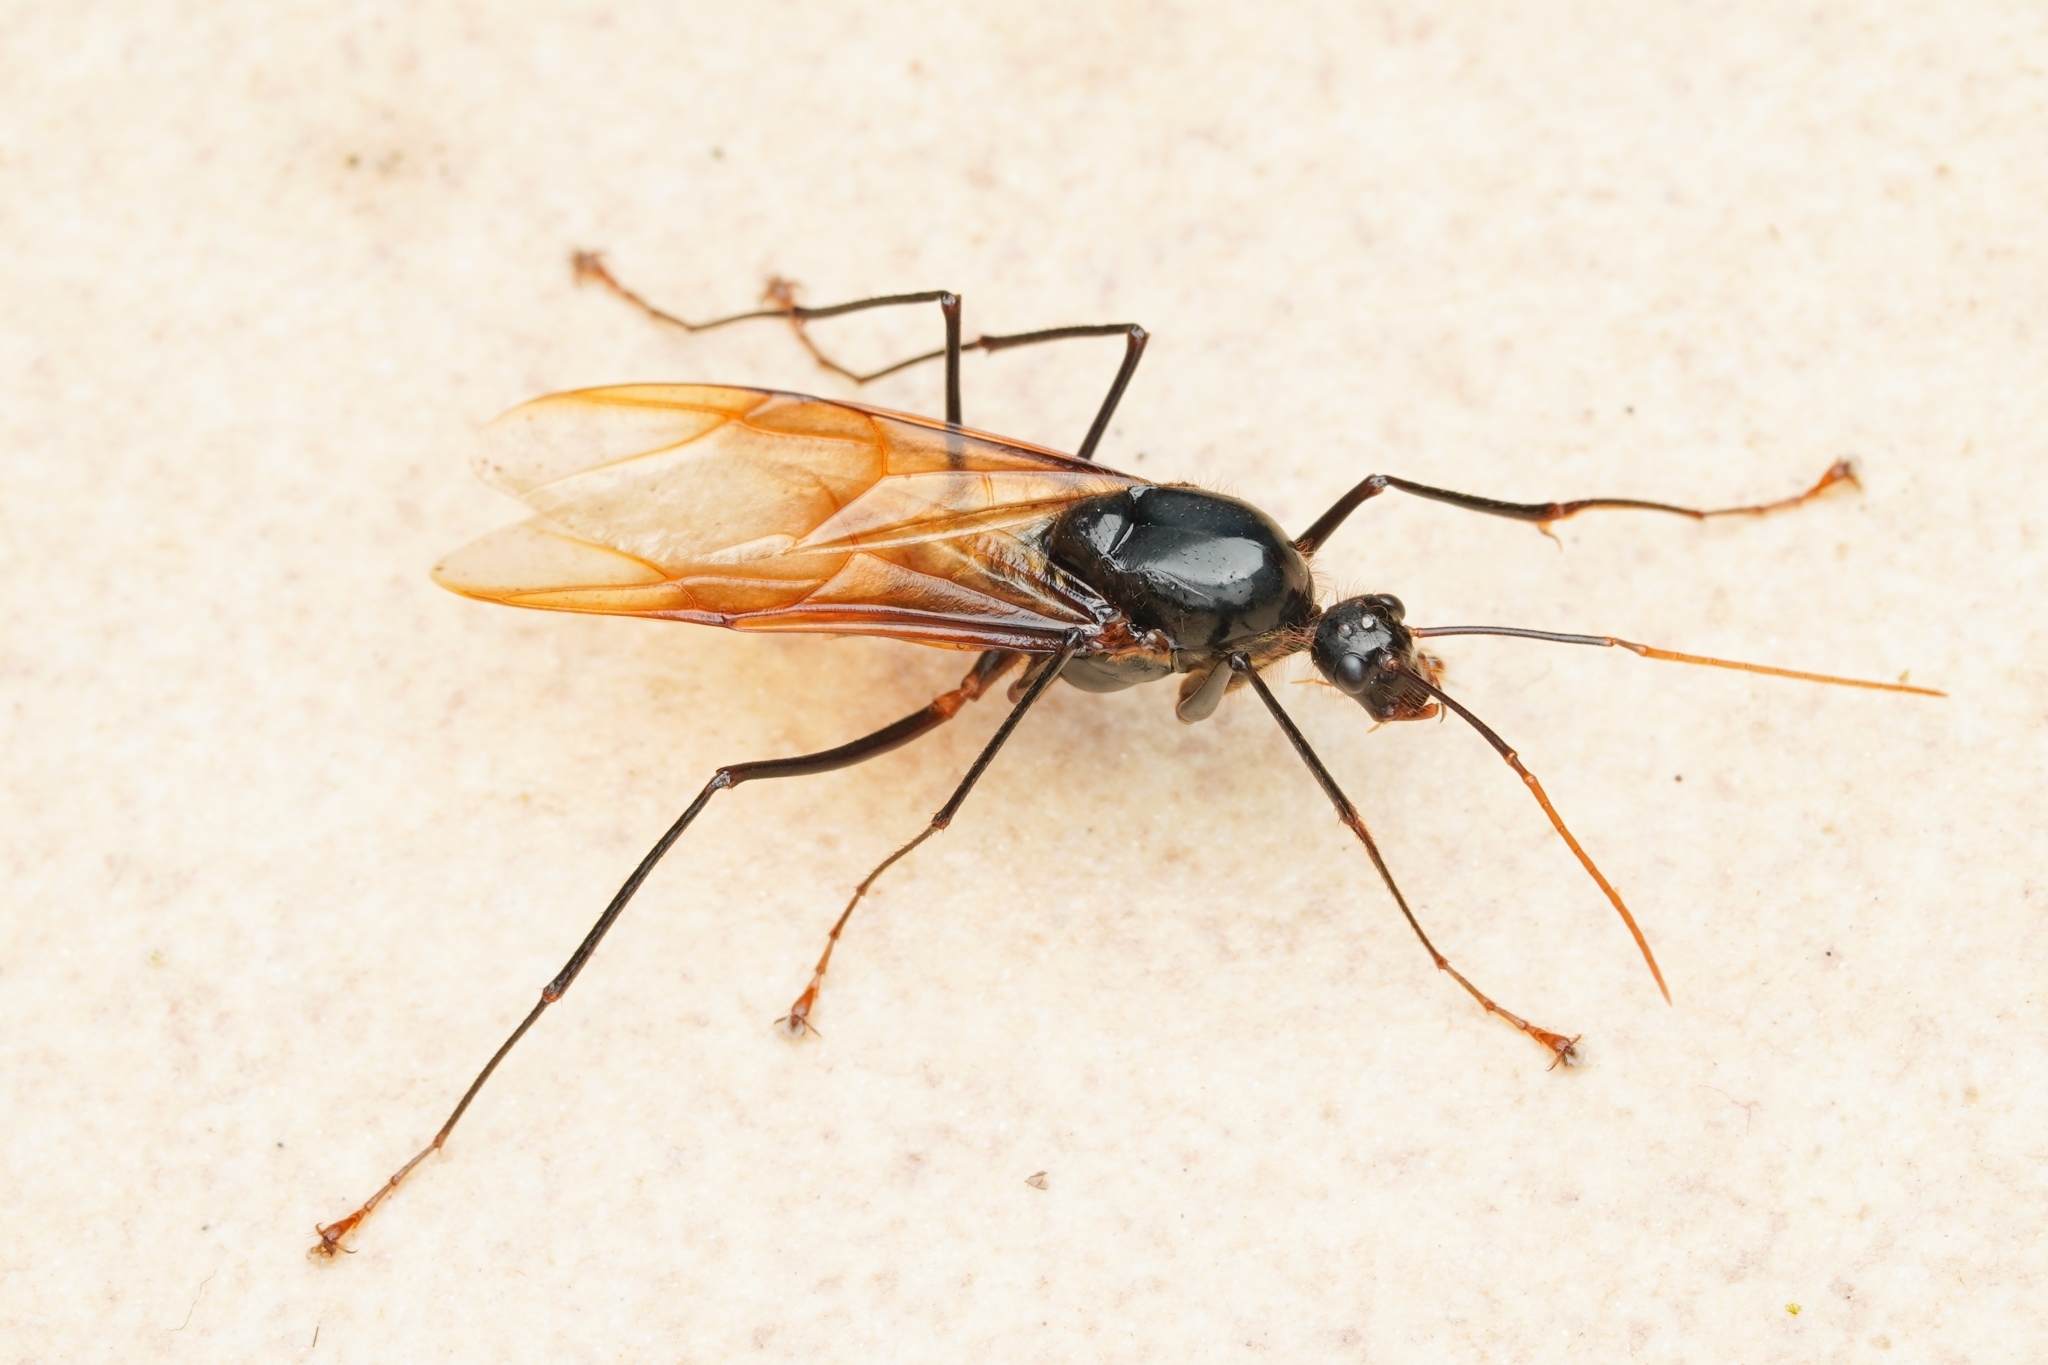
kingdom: Animalia
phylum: Arthropoda
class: Insecta
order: Hymenoptera
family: Formicidae
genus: Dinomyrmex
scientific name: Dinomyrmex
